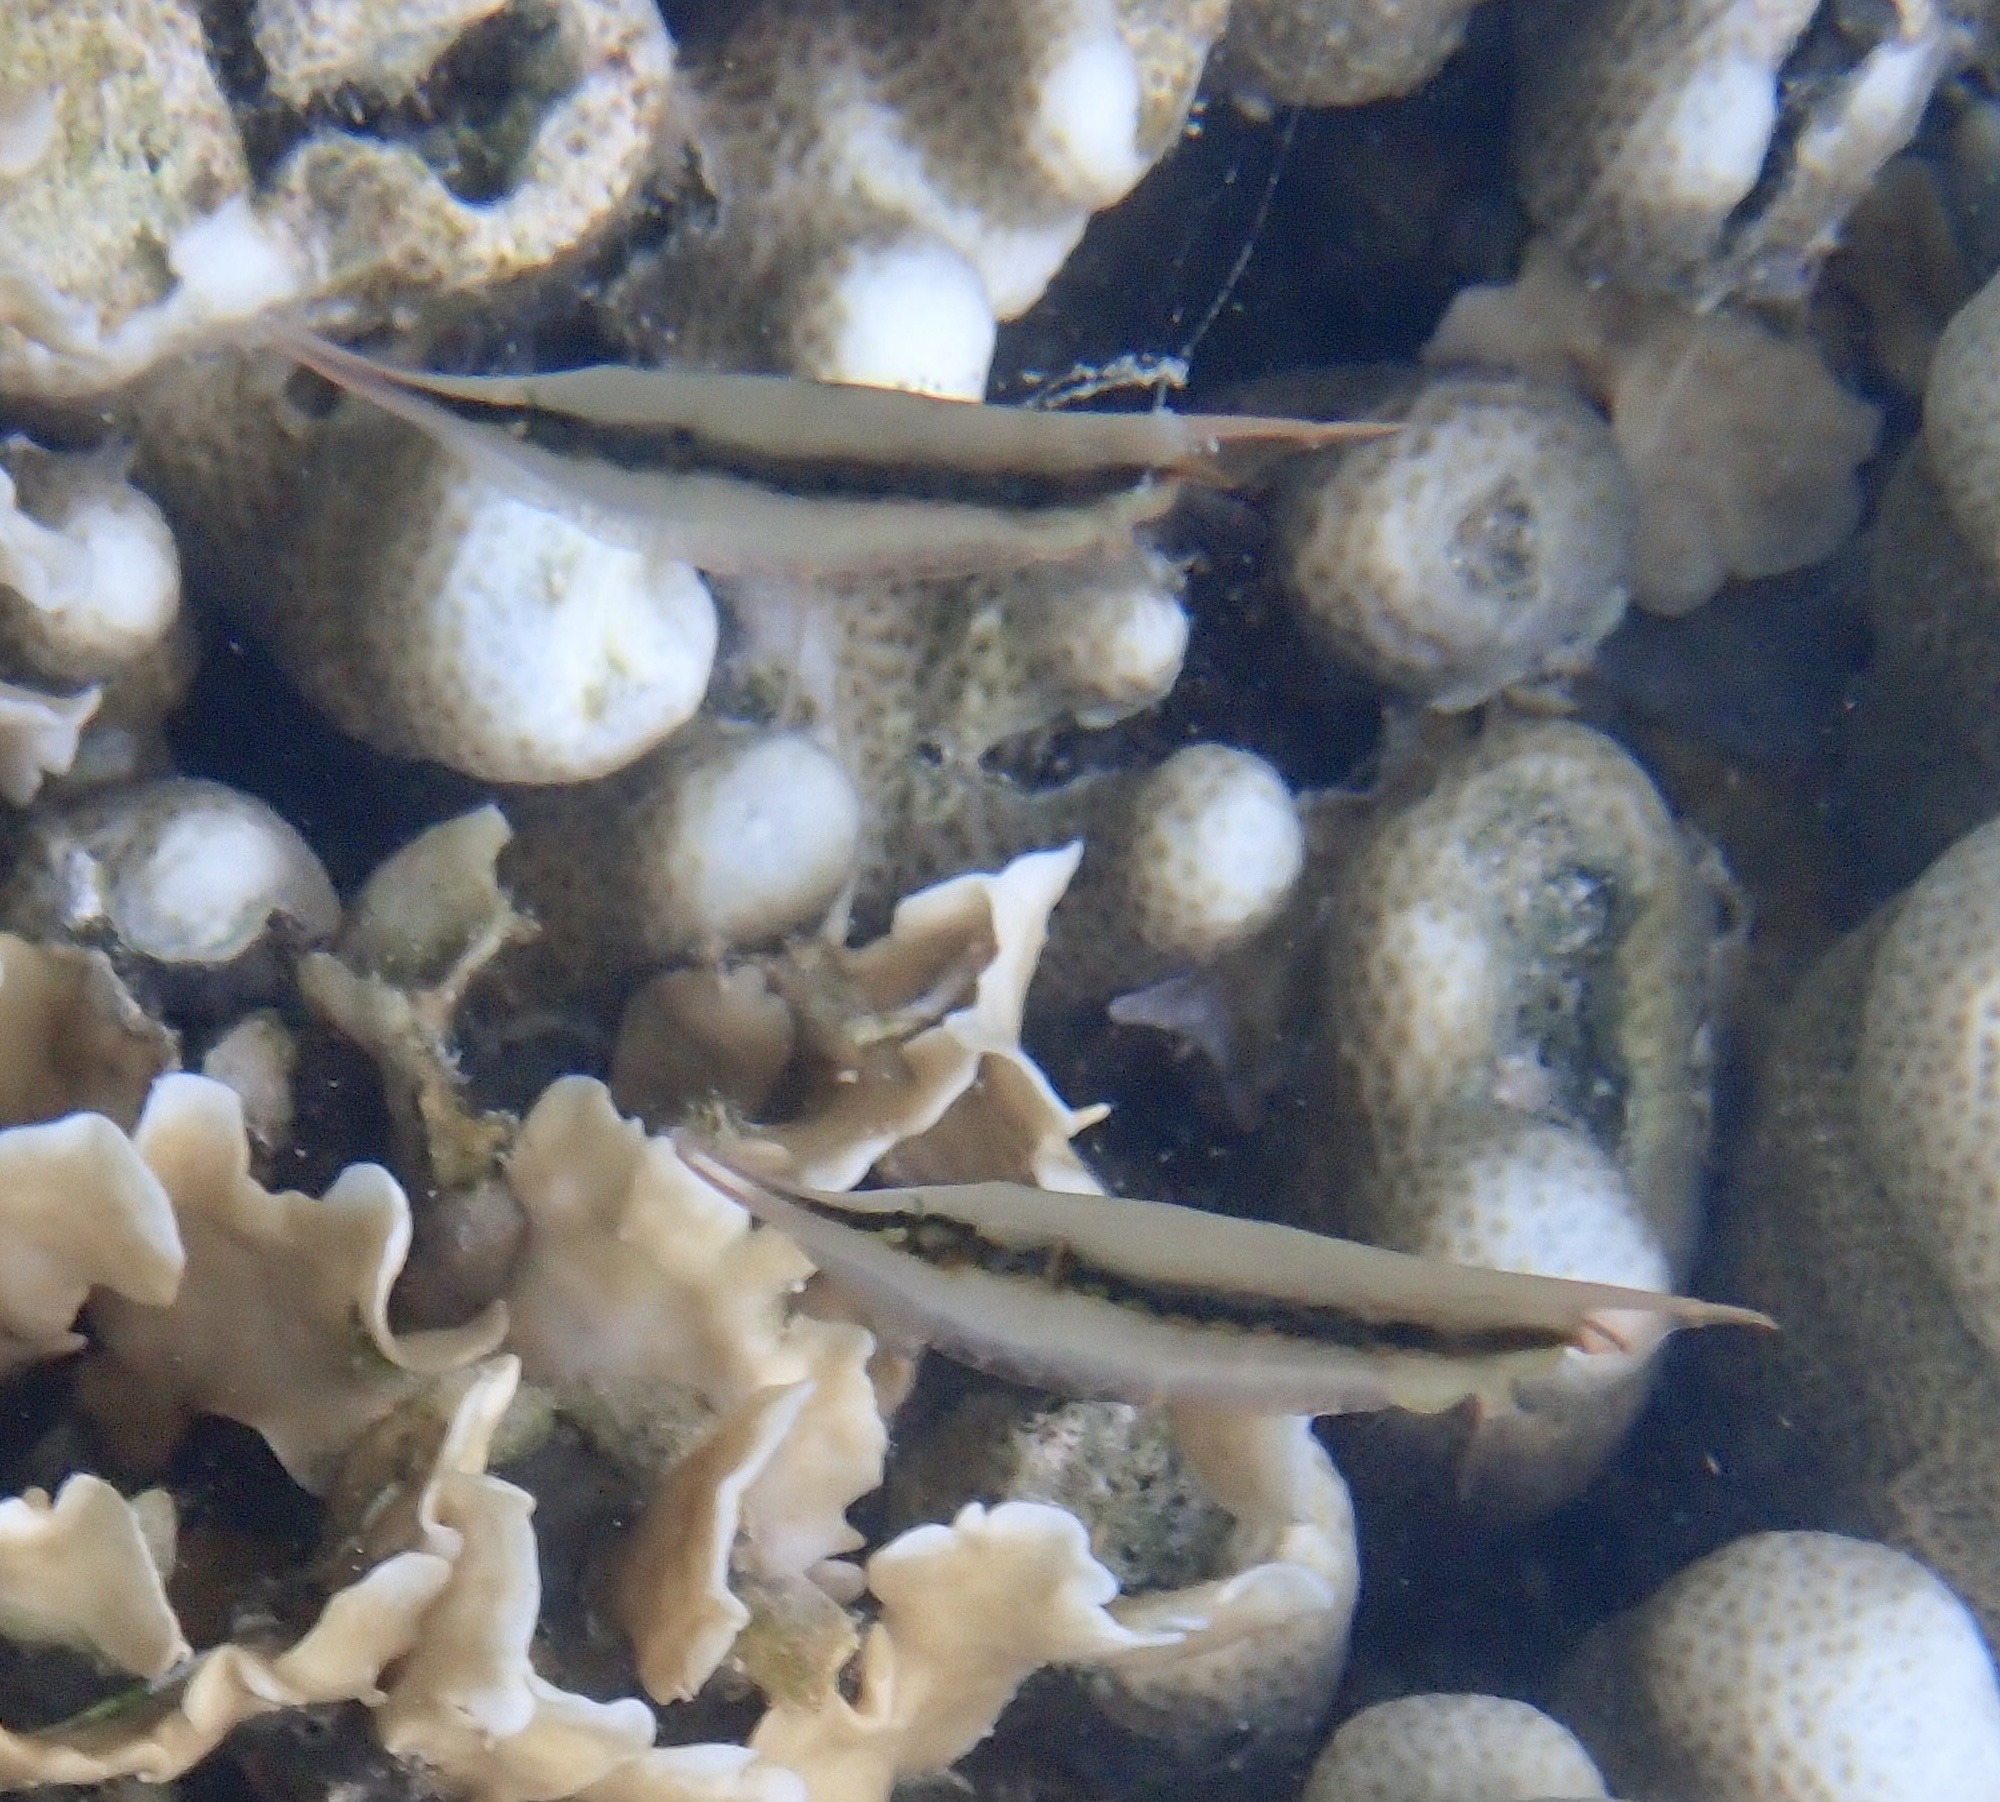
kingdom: Animalia
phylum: Chordata
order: Syngnathiformes
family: Centriscidae
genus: Aeoliscus
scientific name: Aeoliscus strigatus
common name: Canif
